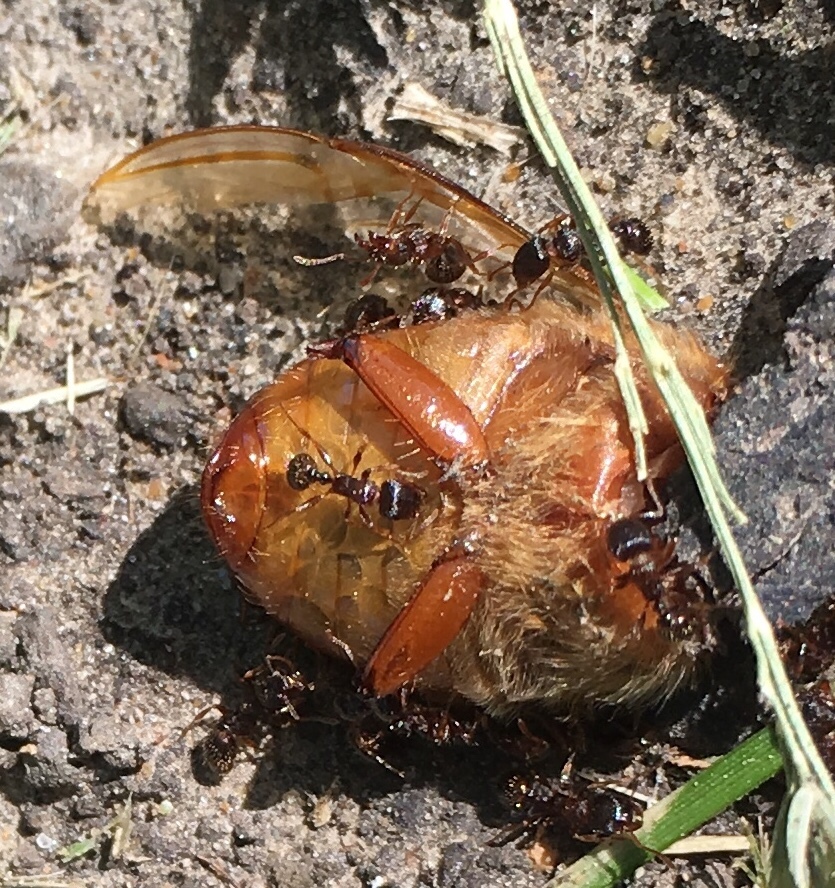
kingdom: Animalia
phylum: Arthropoda
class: Insecta
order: Hymenoptera
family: Formicidae
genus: Tetramorium
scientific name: Tetramorium immigrans
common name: Pavement ant
